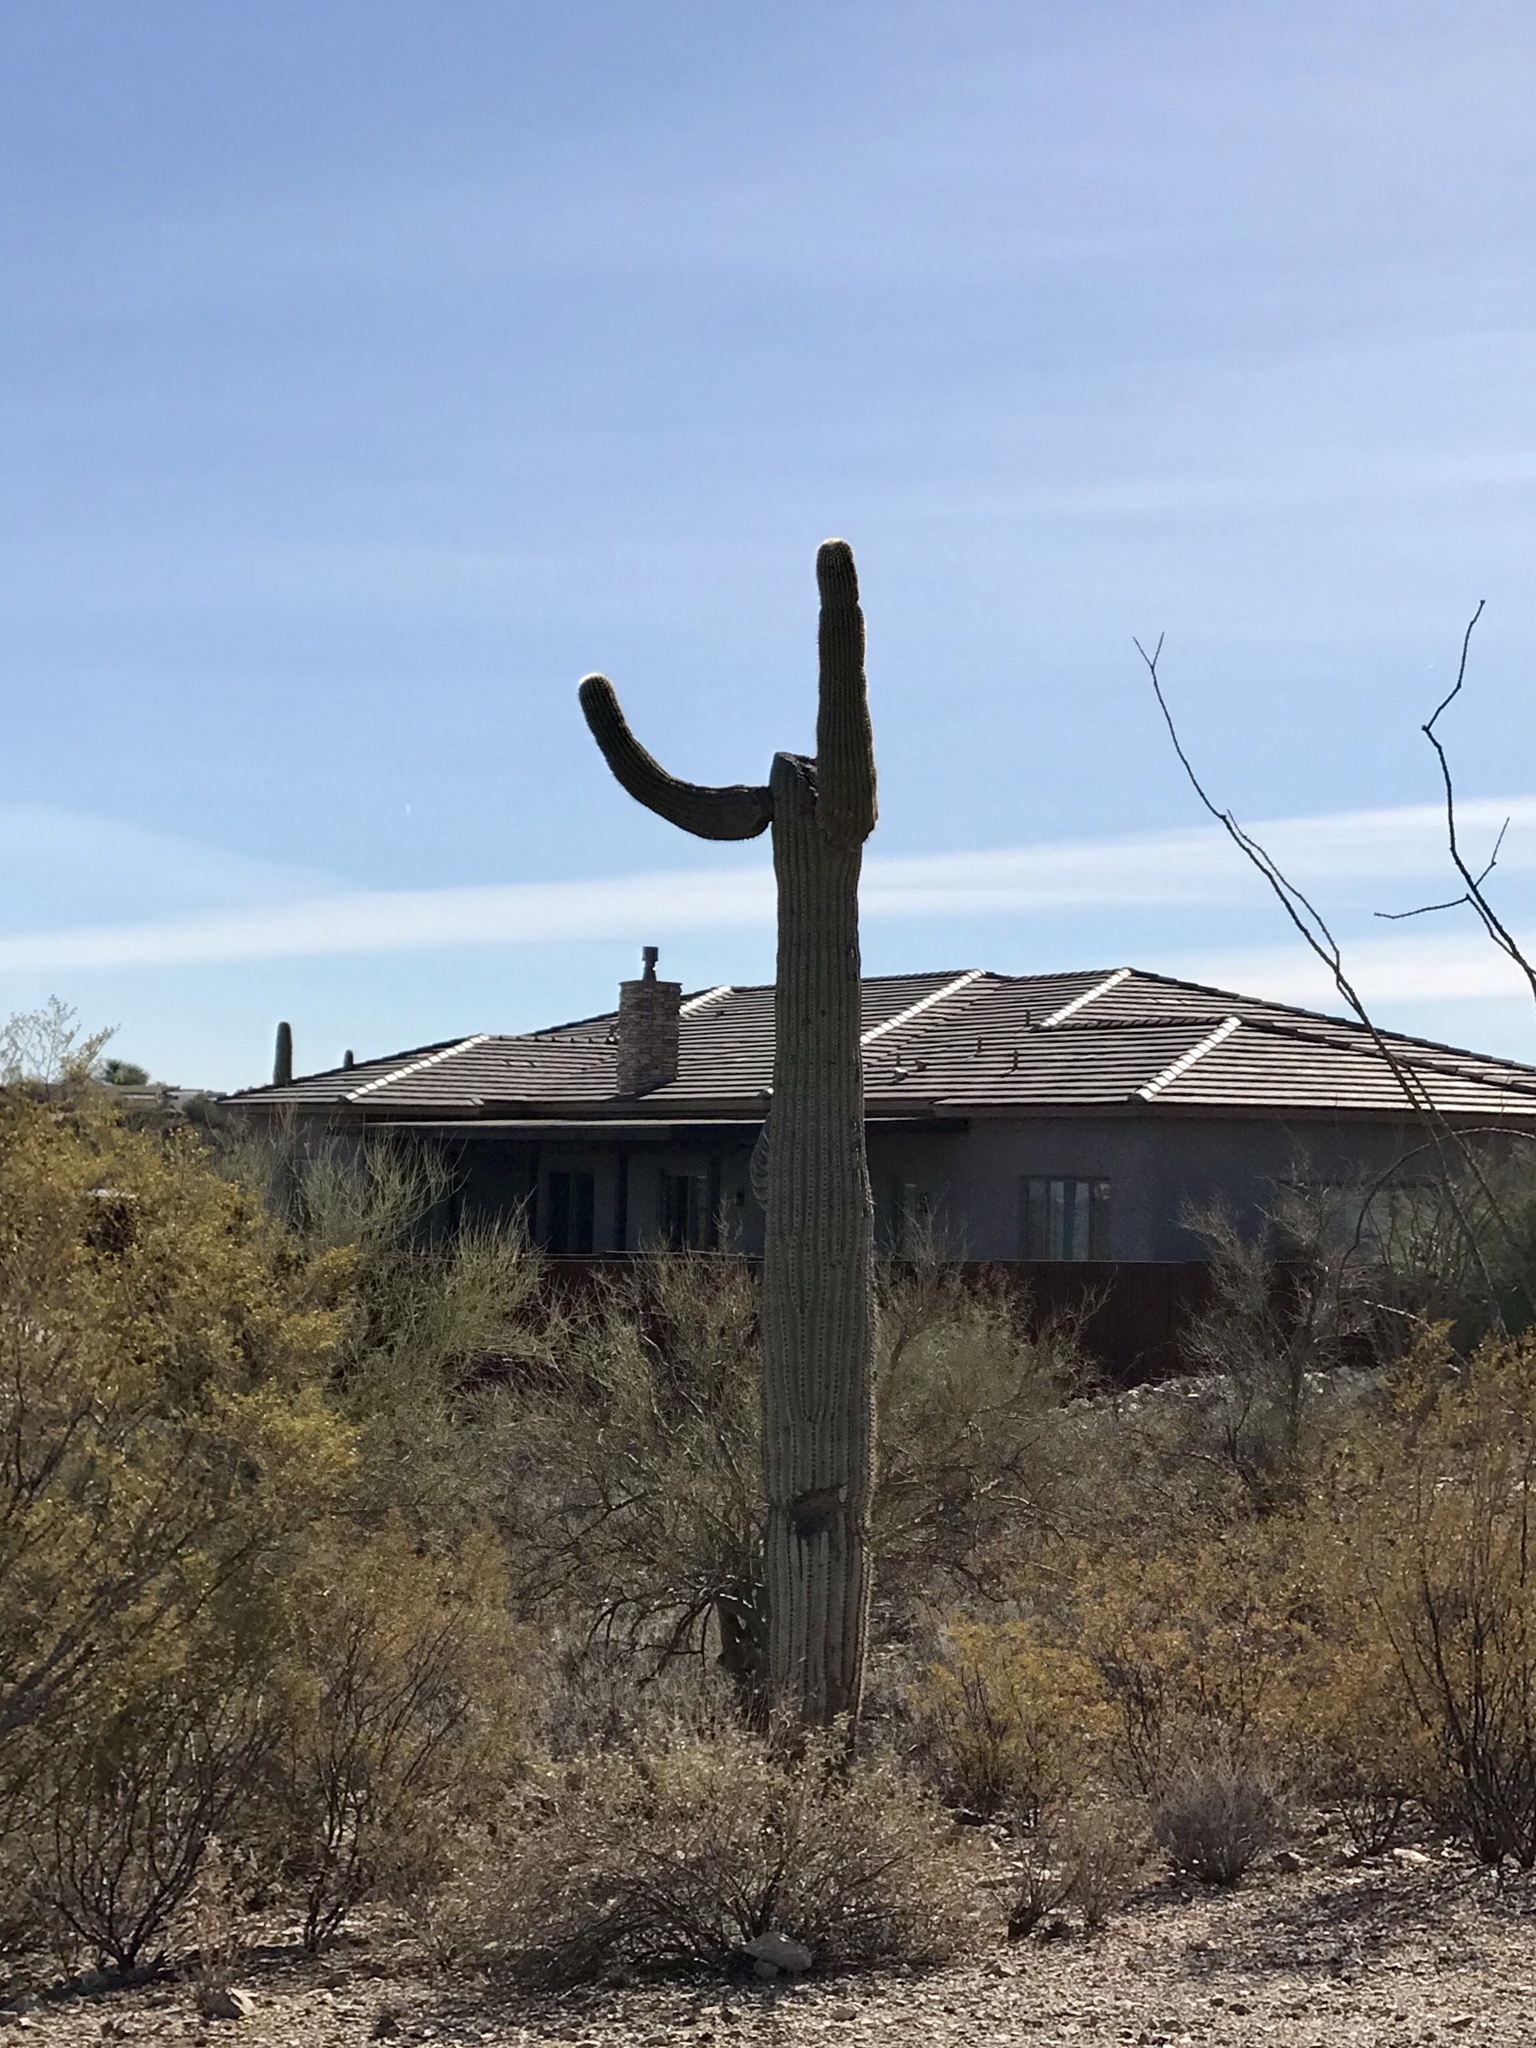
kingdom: Plantae
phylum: Tracheophyta
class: Magnoliopsida
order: Caryophyllales
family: Cactaceae
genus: Carnegiea
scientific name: Carnegiea gigantea
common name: Saguaro
